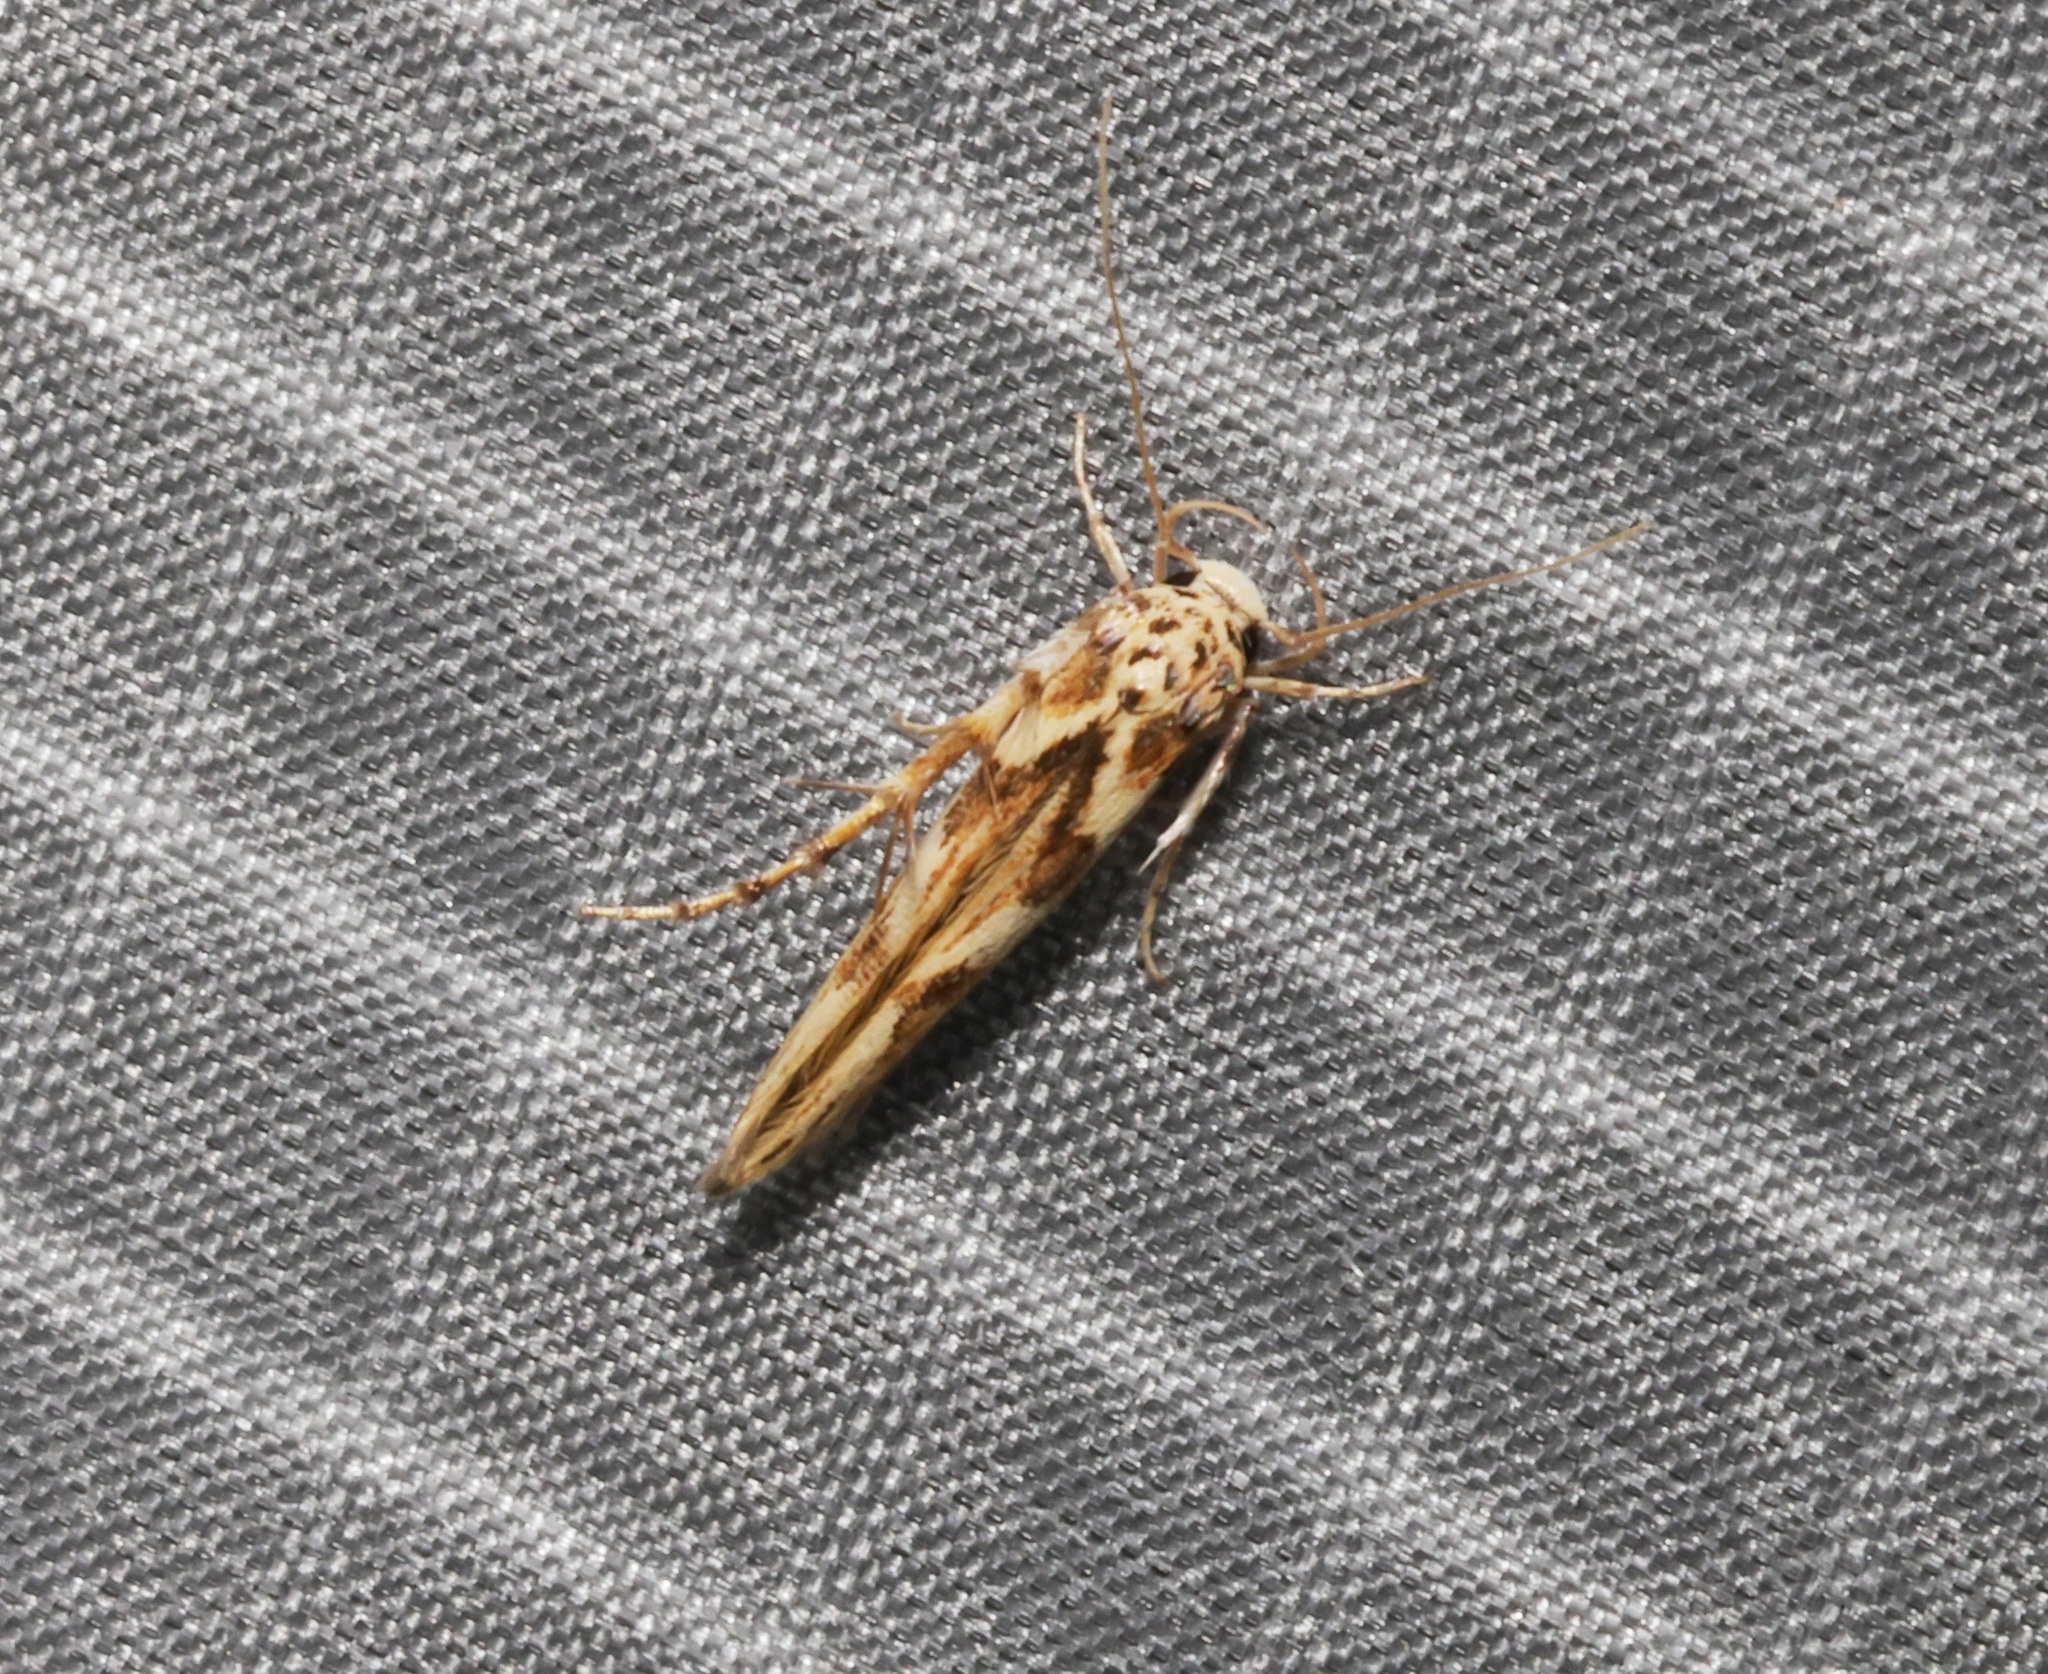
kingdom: Animalia
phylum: Arthropoda
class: Insecta
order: Lepidoptera
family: Stathmopodidae
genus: Stathmopoda
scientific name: Stathmopoda stimulata
